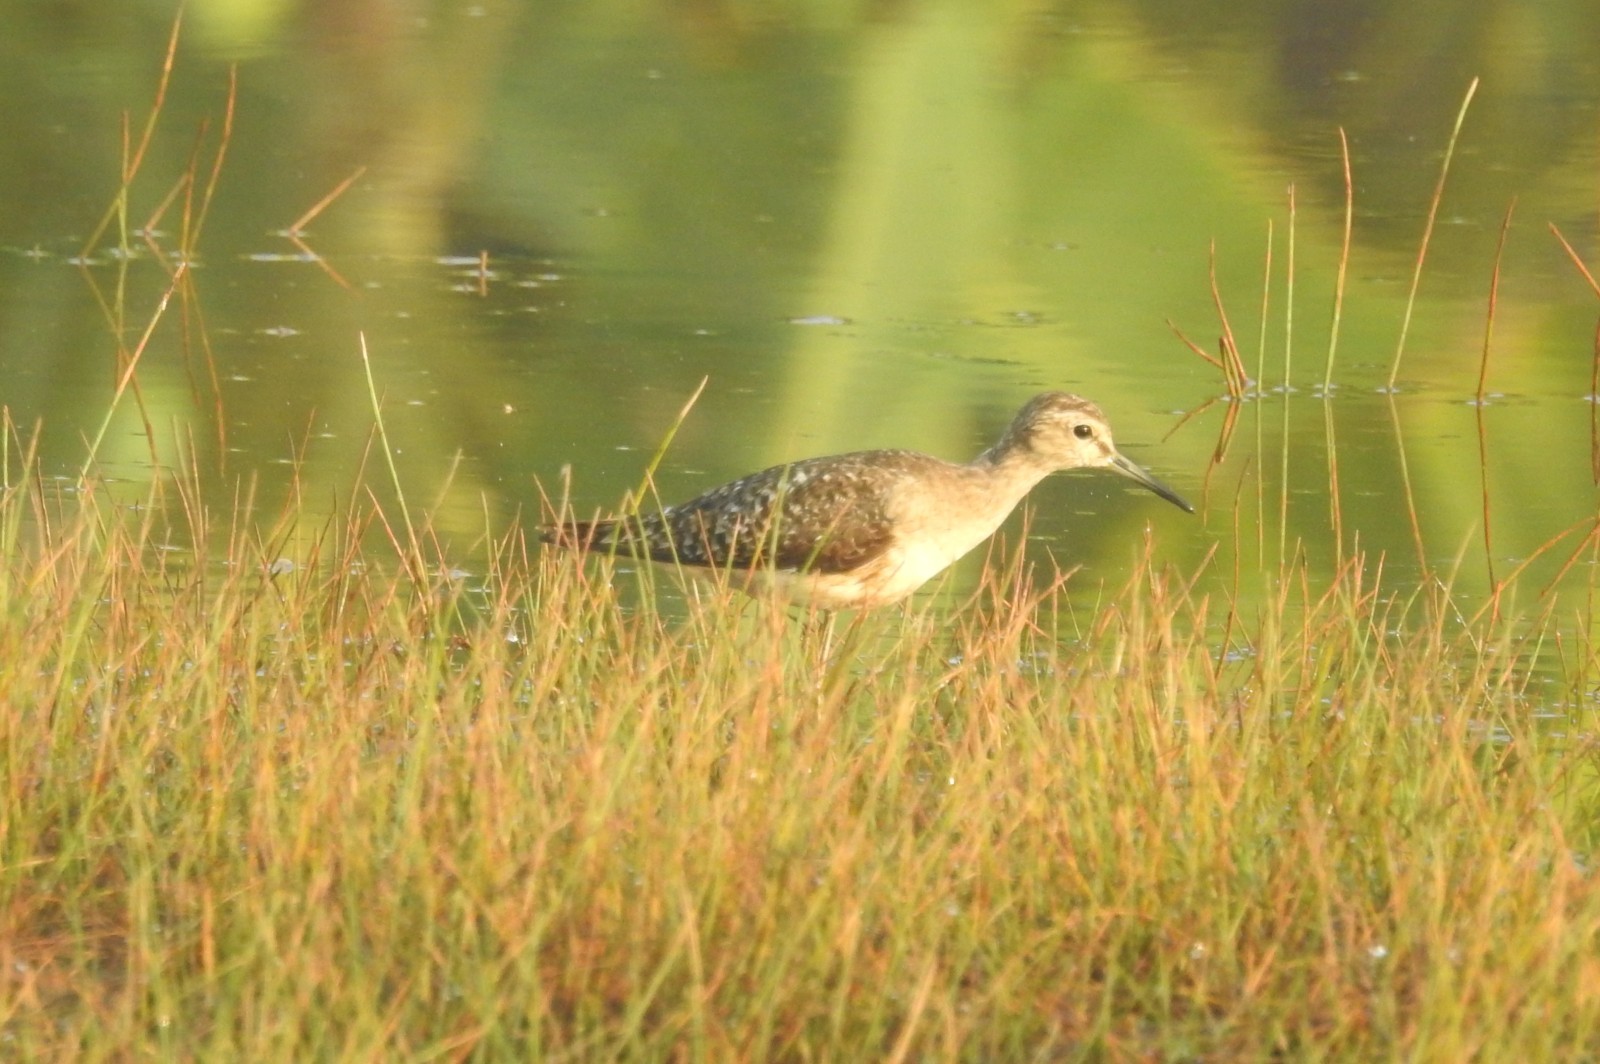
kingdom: Animalia
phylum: Chordata
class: Aves
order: Charadriiformes
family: Scolopacidae
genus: Tringa
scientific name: Tringa glareola
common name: Wood sandpiper
